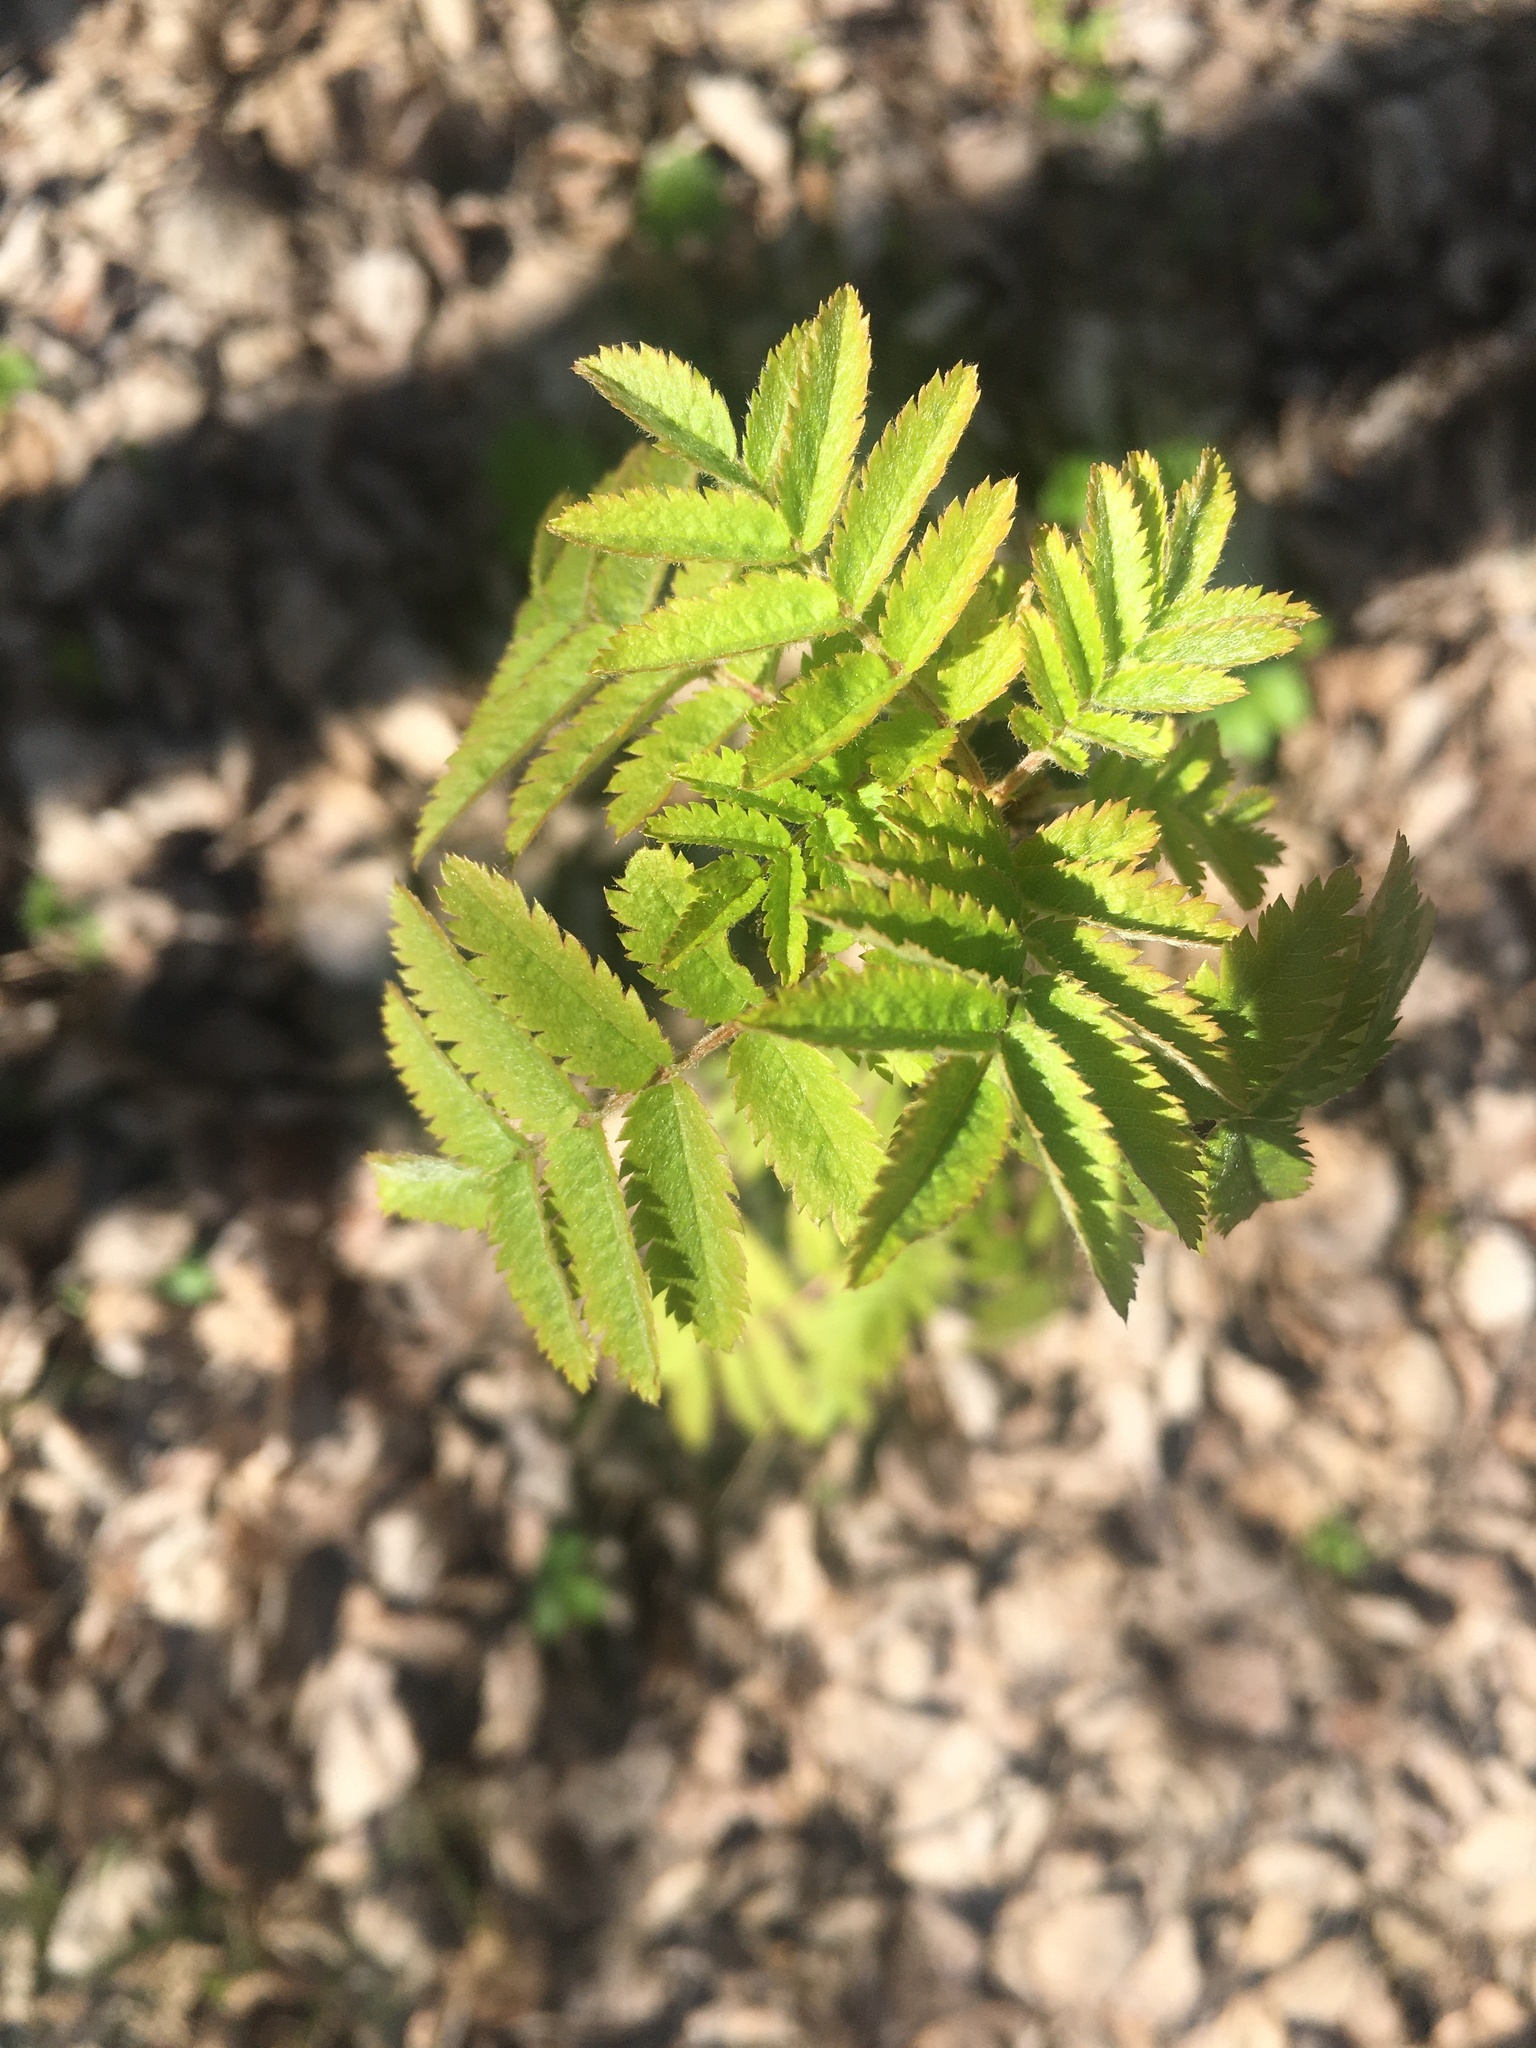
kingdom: Plantae
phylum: Tracheophyta
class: Magnoliopsida
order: Rosales
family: Rosaceae
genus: Sorbus
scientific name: Sorbus aucuparia
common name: Rowan
